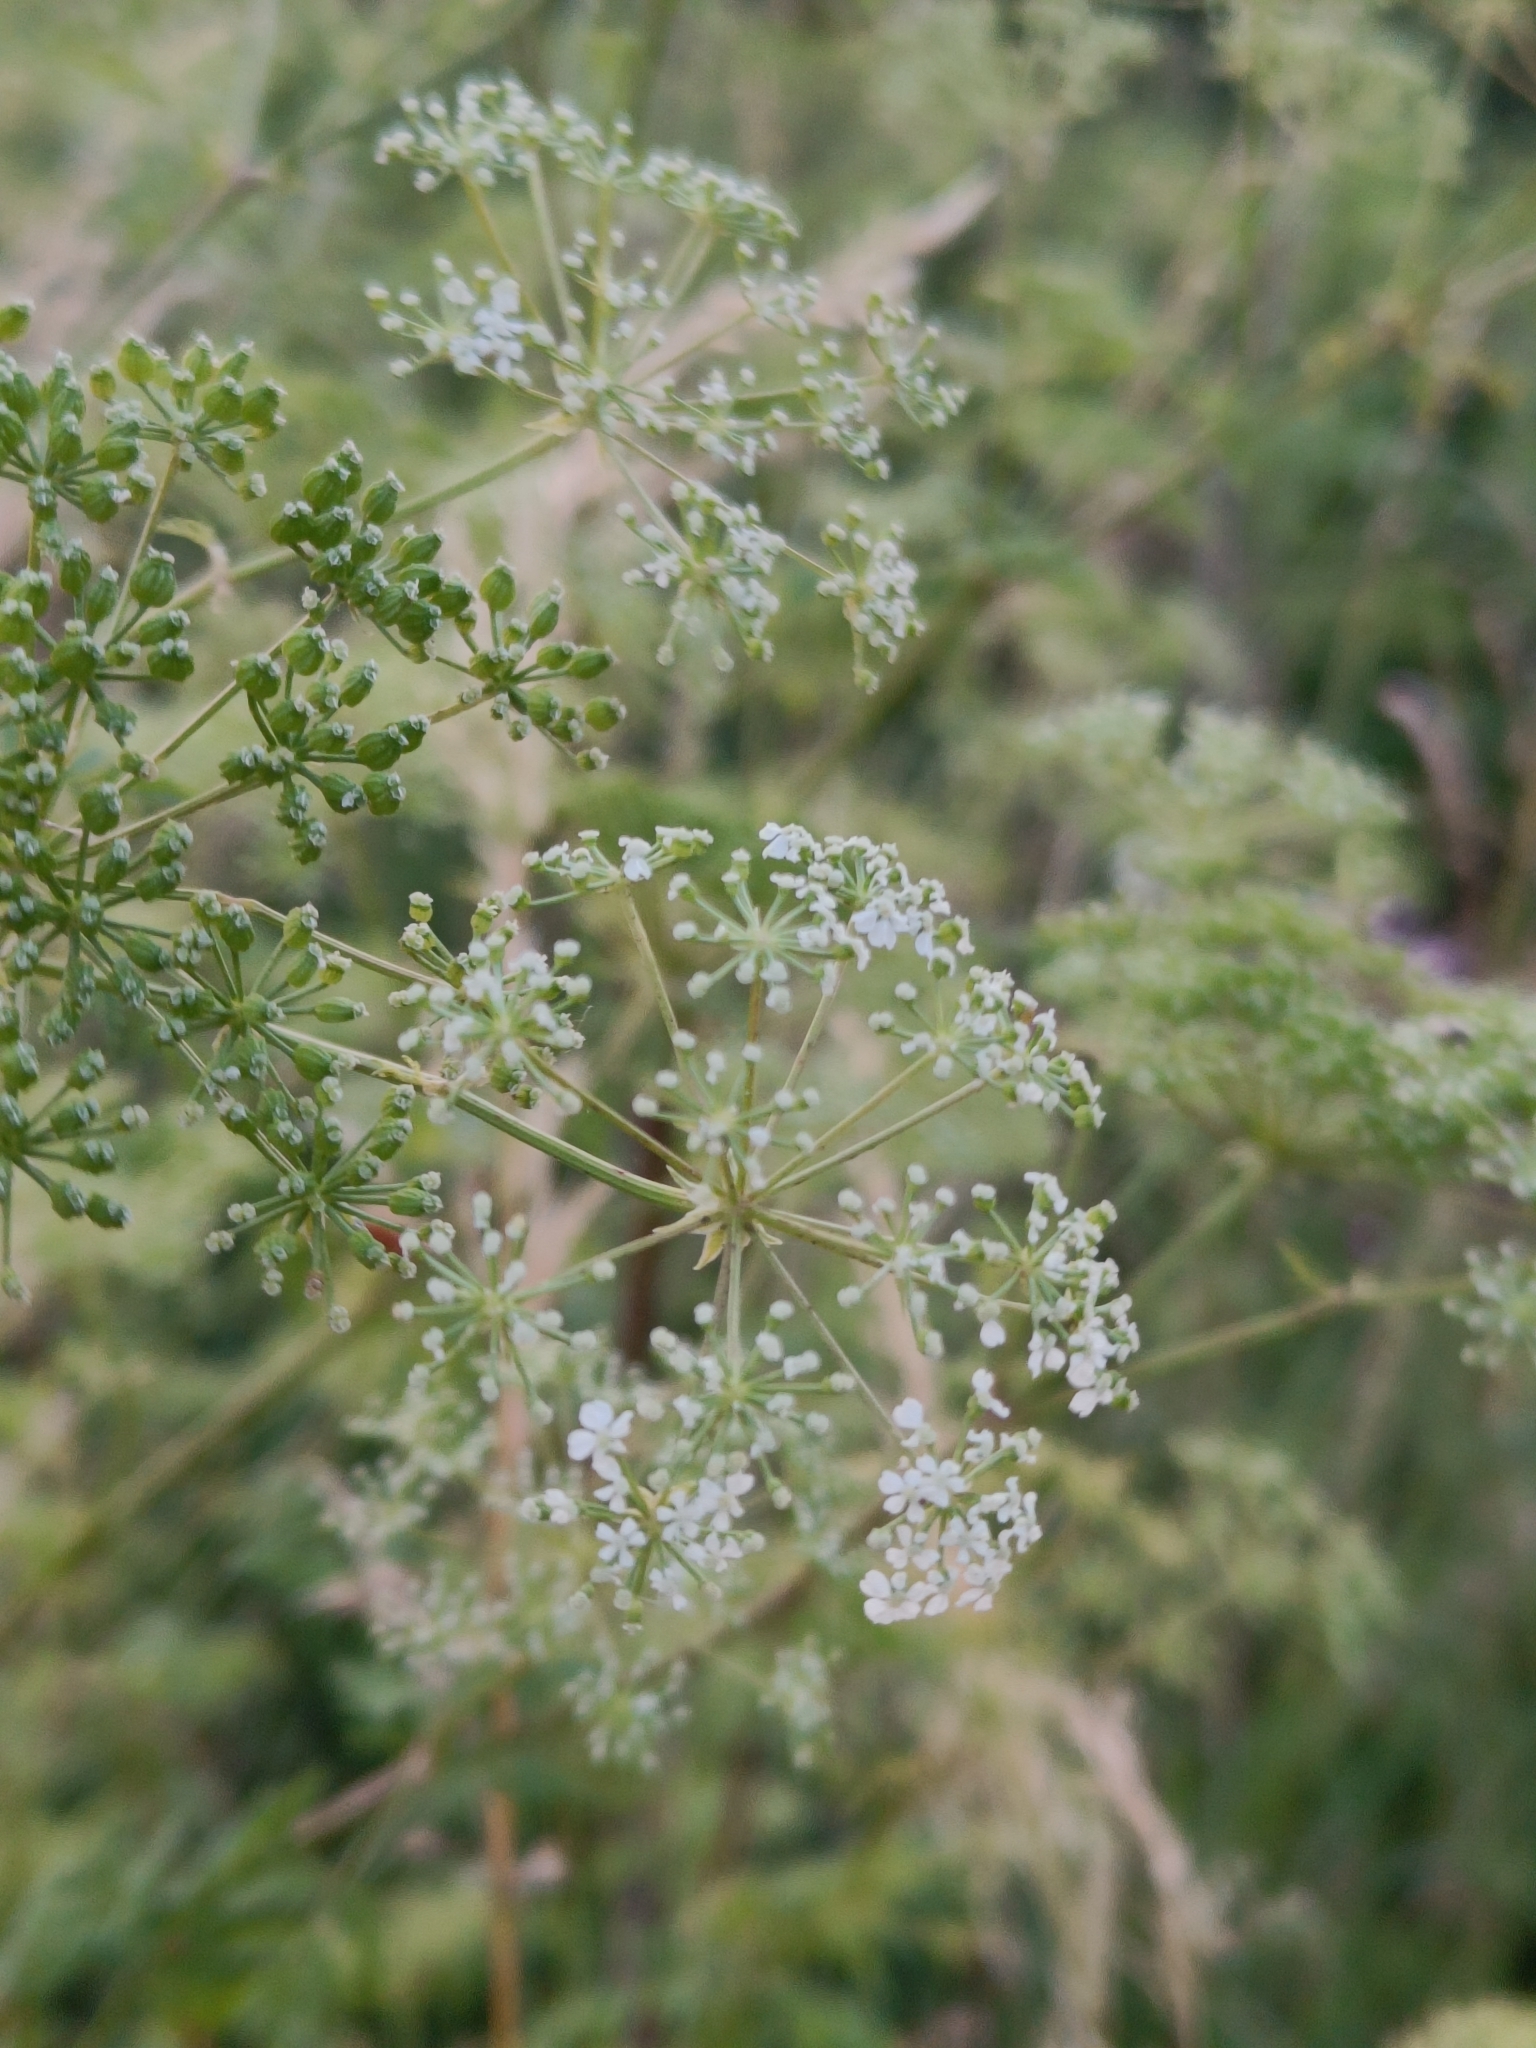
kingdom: Plantae
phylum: Tracheophyta
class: Magnoliopsida
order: Apiales
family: Apiaceae
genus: Conium
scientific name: Conium maculatum
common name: Hemlock
